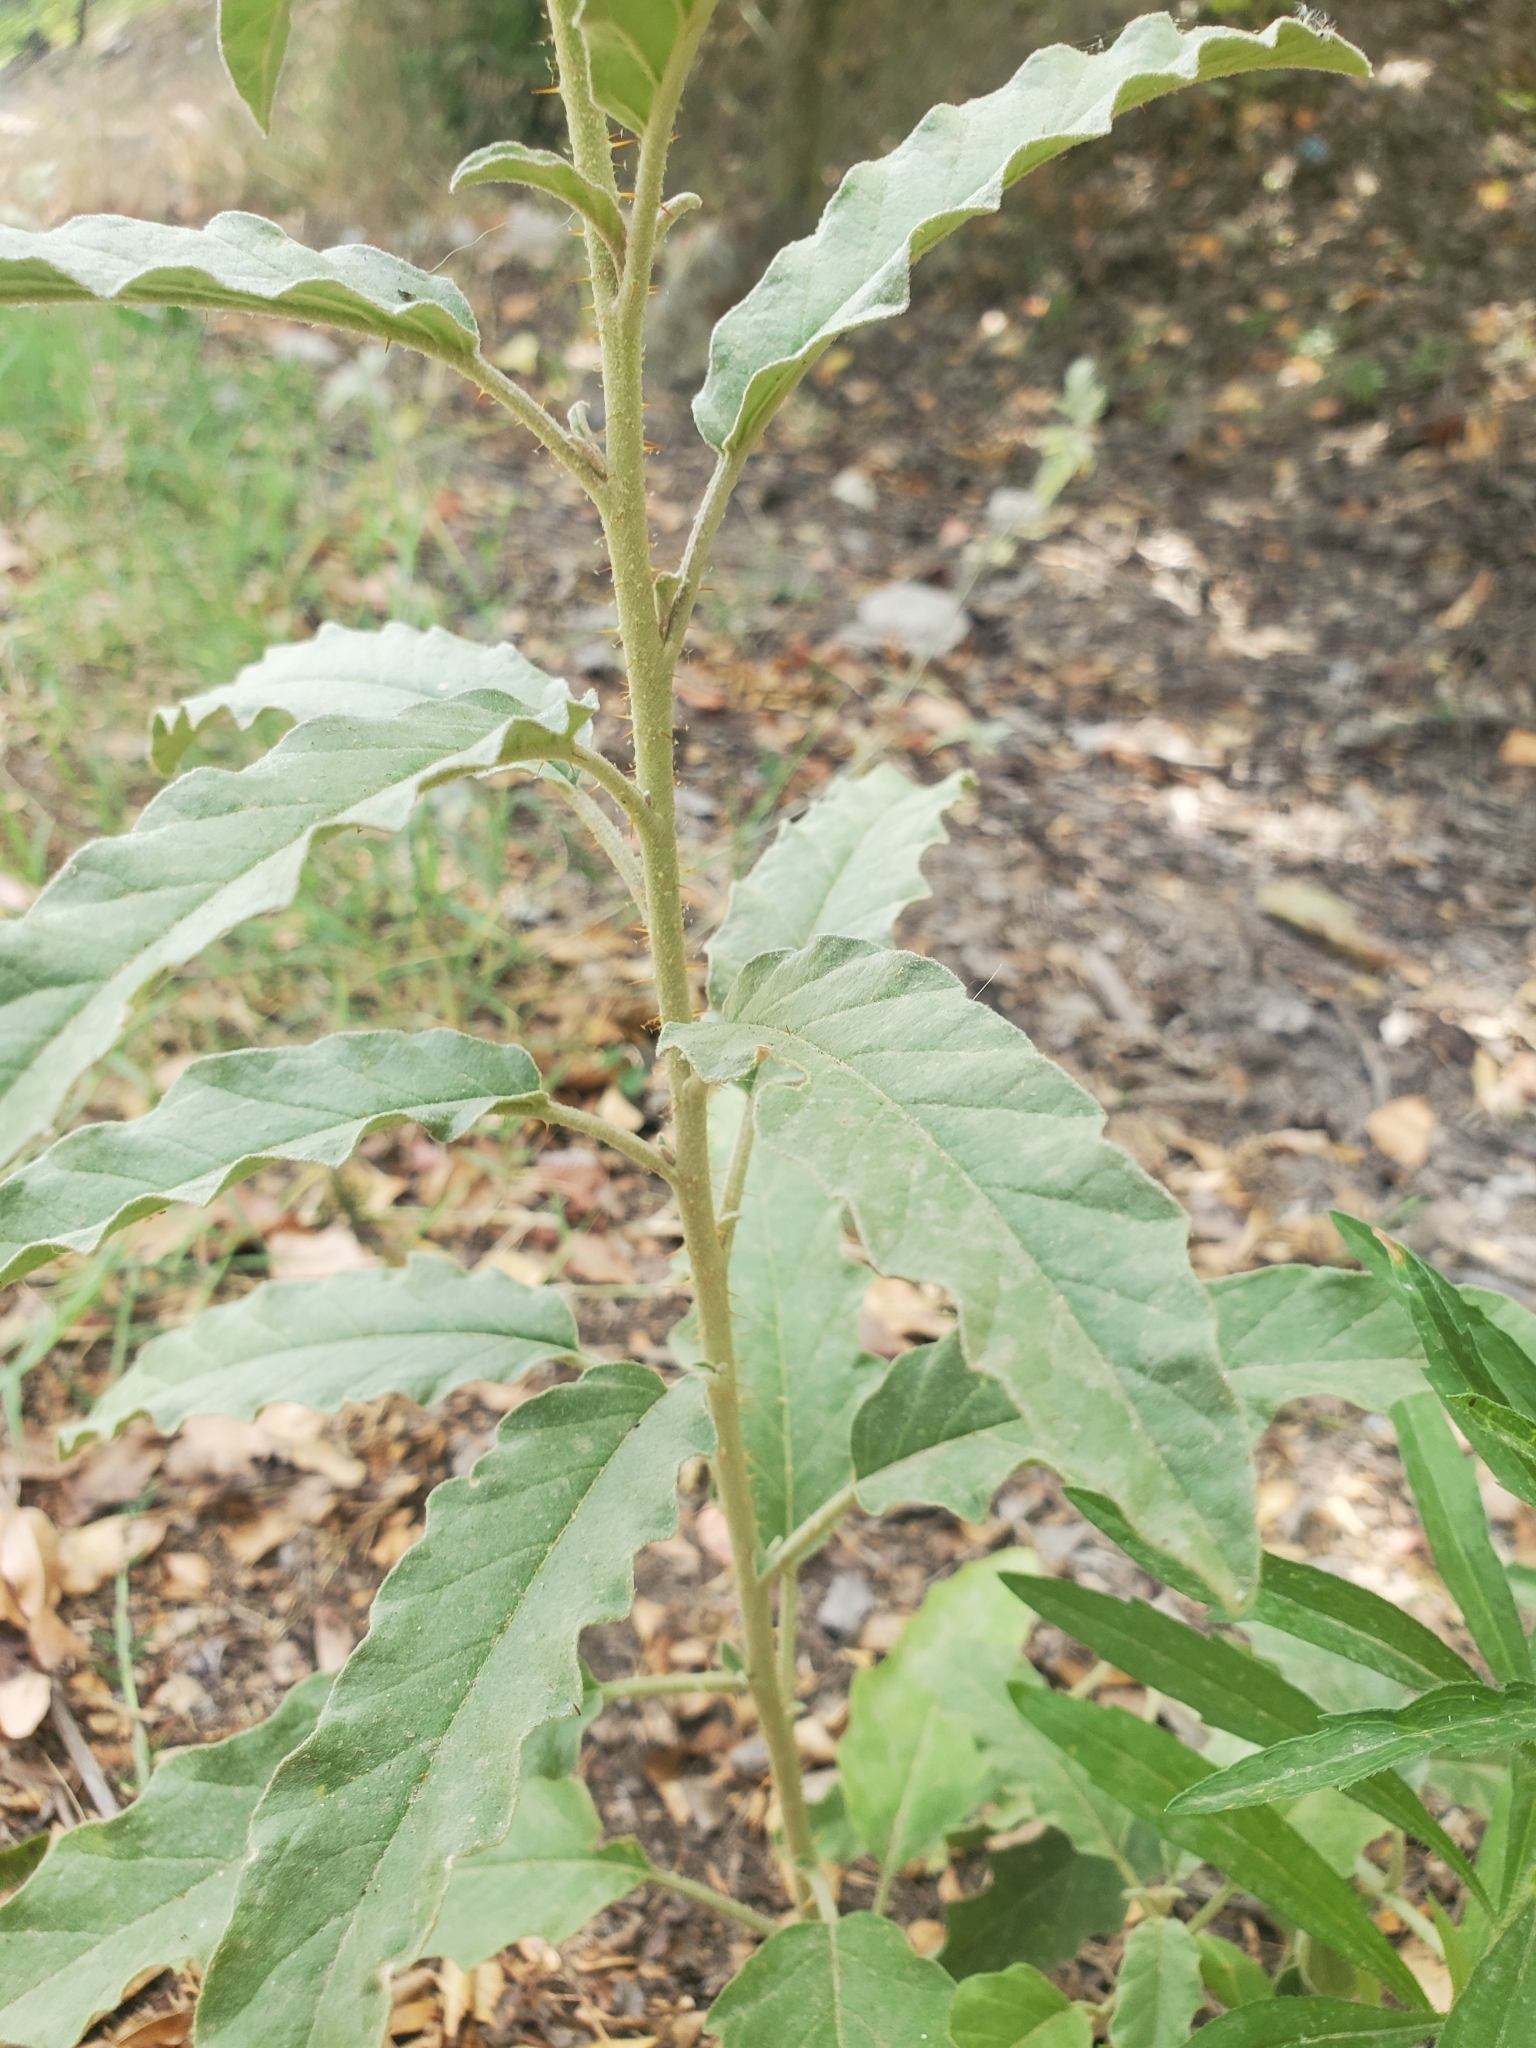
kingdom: Plantae
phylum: Tracheophyta
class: Magnoliopsida
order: Solanales
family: Solanaceae
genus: Solanum
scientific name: Solanum elaeagnifolium
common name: Silverleaf nightshade
